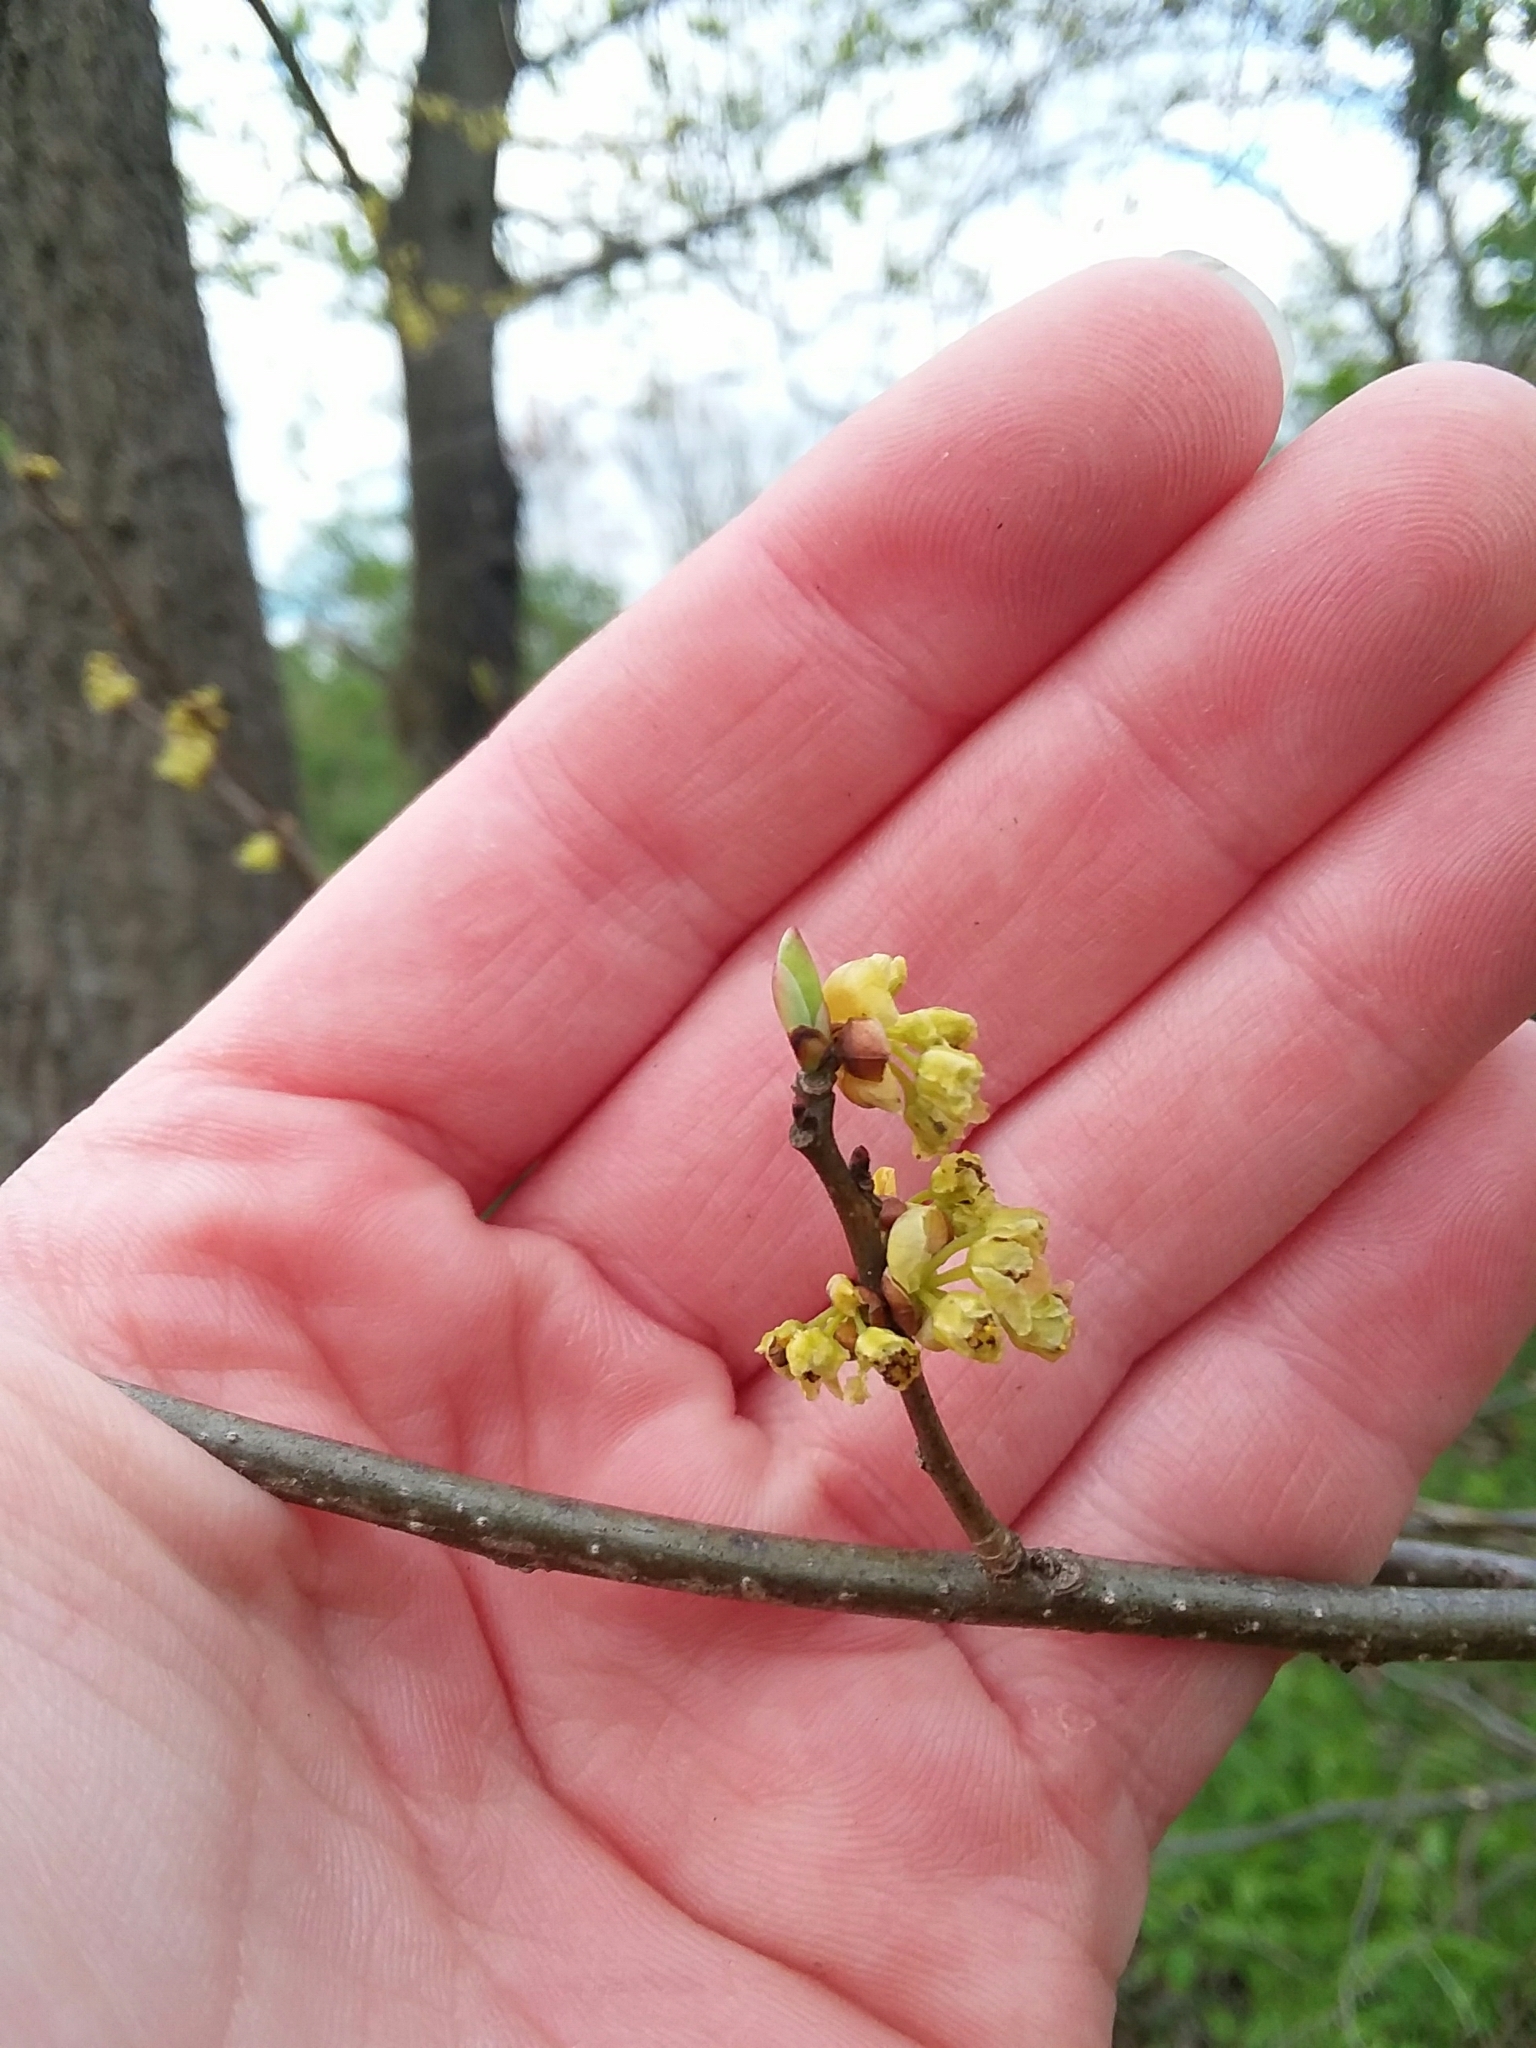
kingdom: Plantae
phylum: Tracheophyta
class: Magnoliopsida
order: Laurales
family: Lauraceae
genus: Lindera
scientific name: Lindera benzoin
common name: Spicebush
